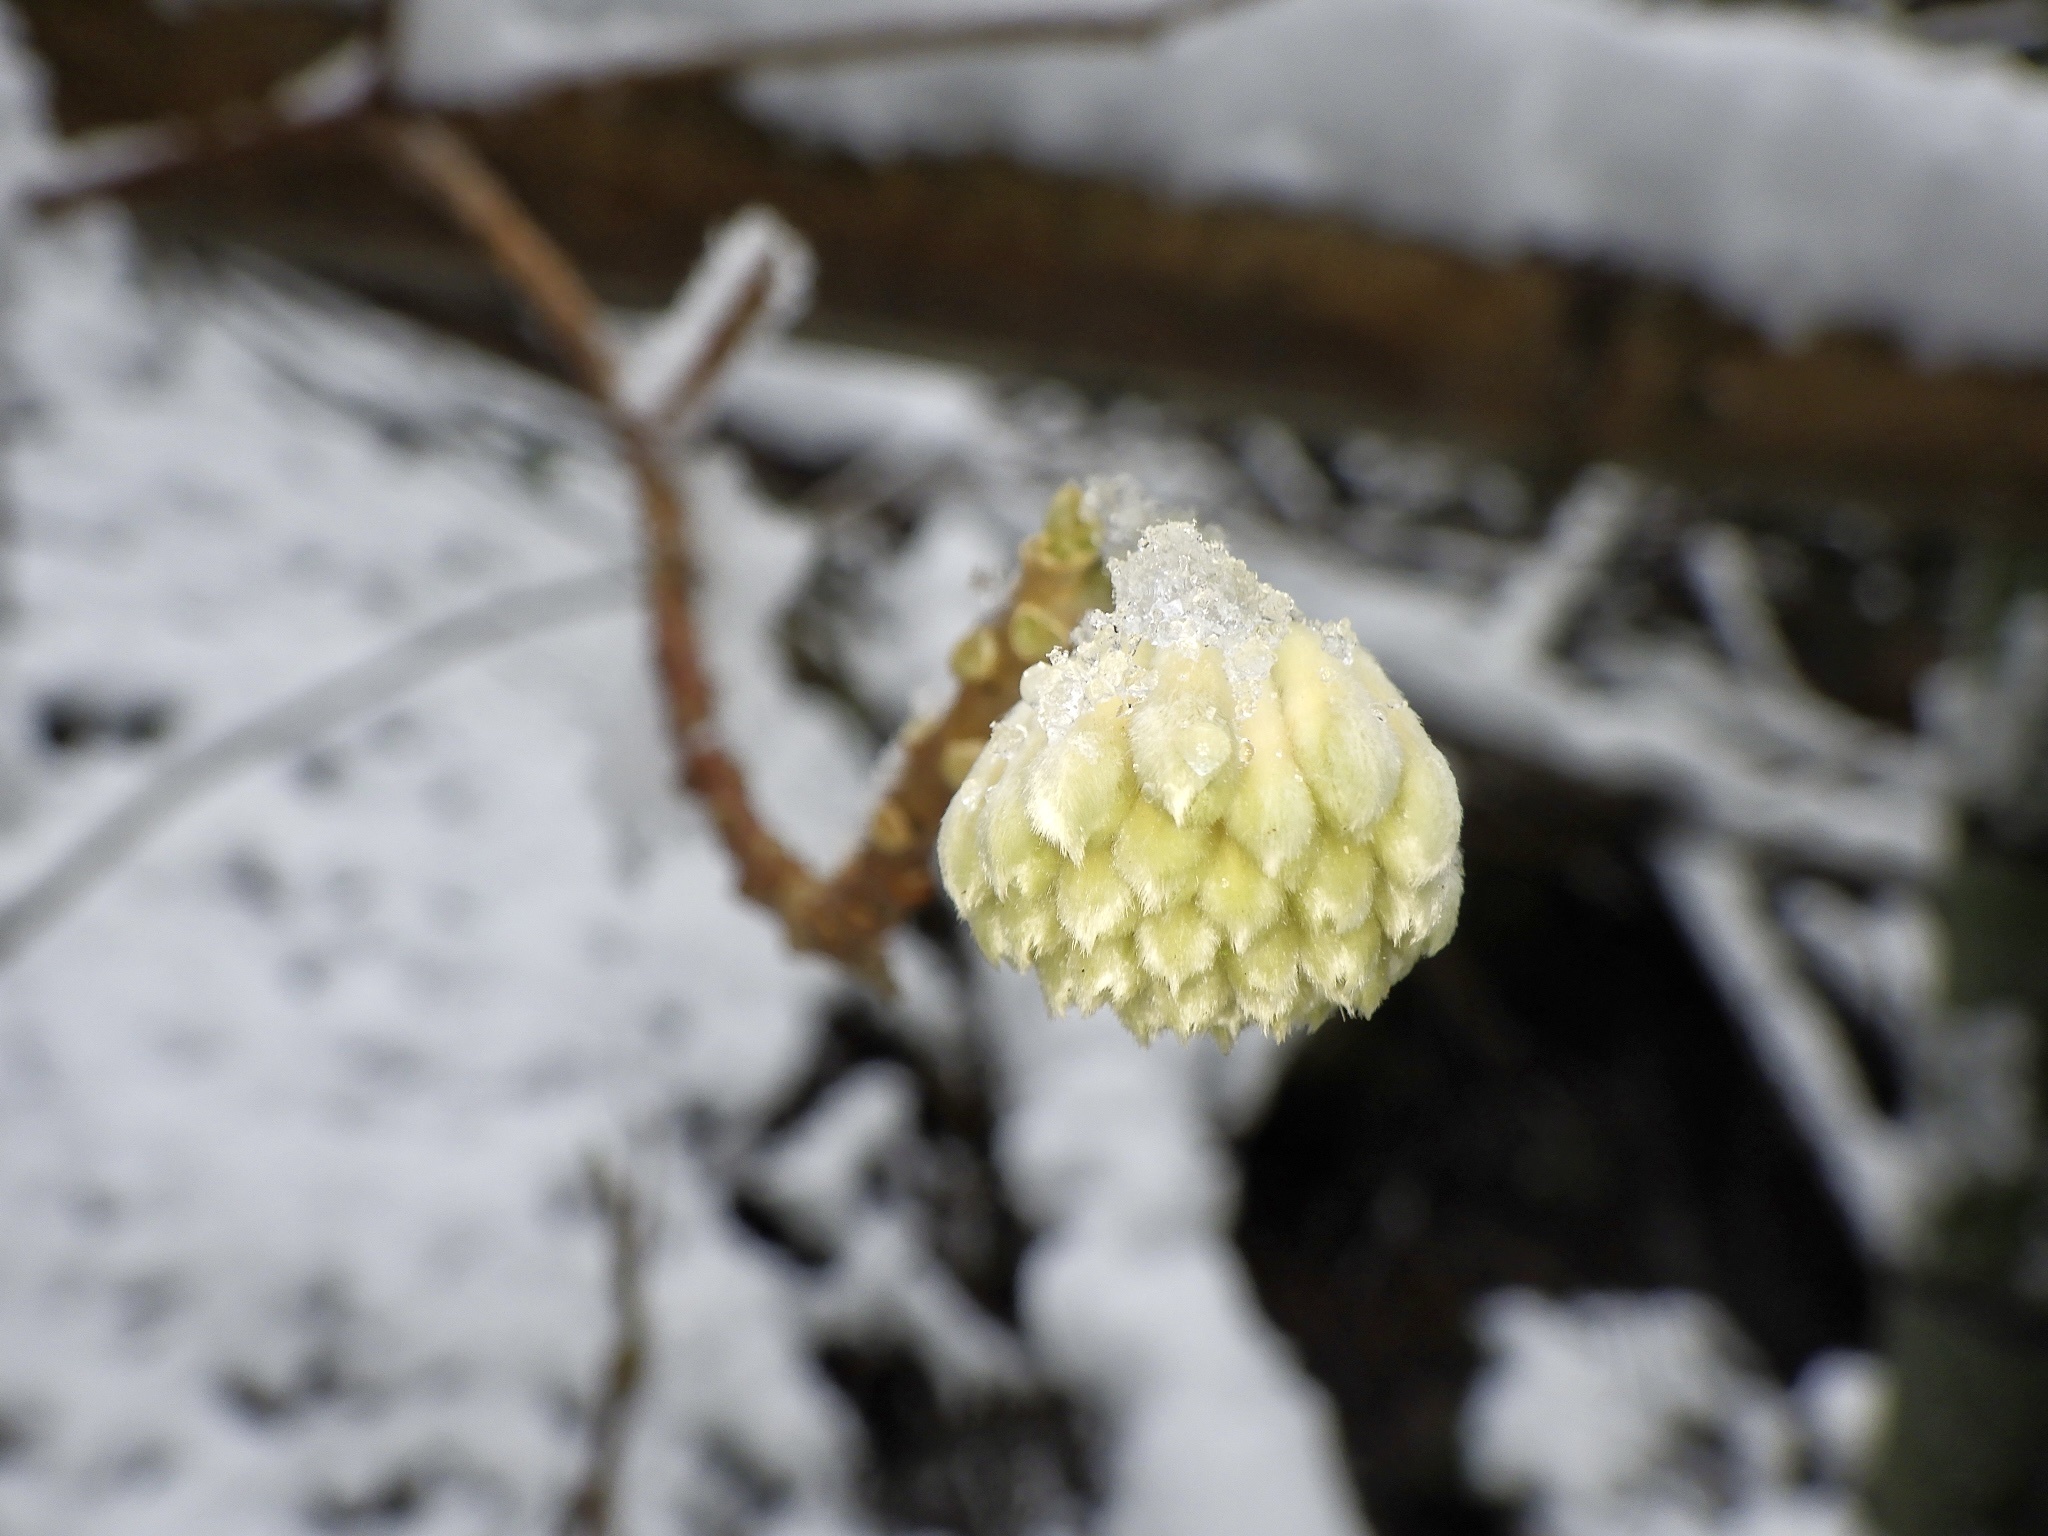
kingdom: Plantae
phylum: Tracheophyta
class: Magnoliopsida
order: Malvales
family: Thymelaeaceae
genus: Edgeworthia
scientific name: Edgeworthia chrysantha
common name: Oriental paperbush
